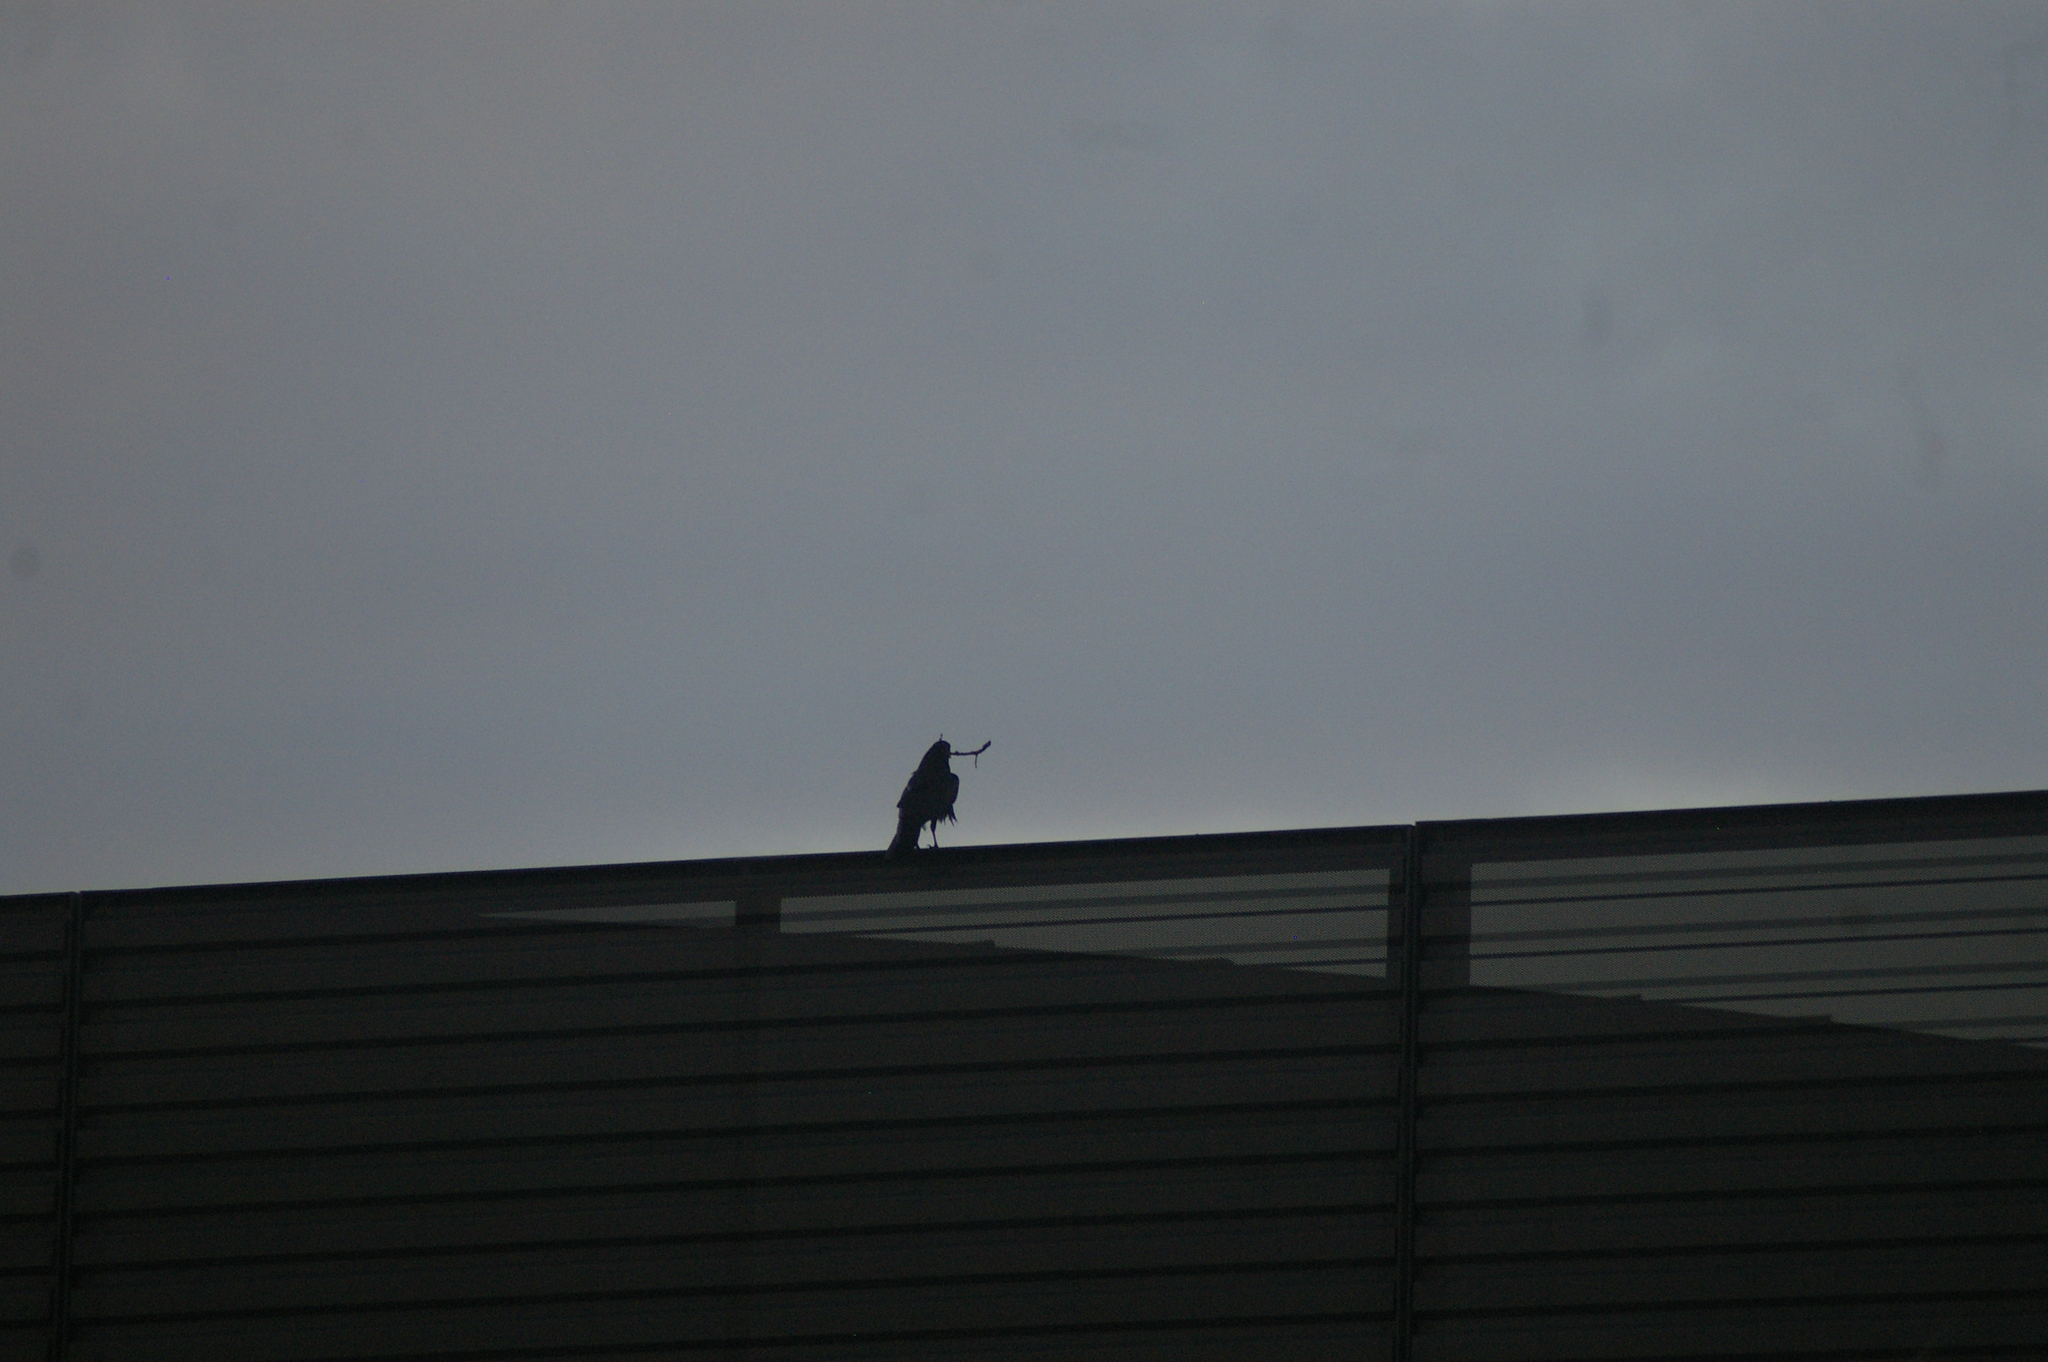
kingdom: Animalia
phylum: Chordata
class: Aves
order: Passeriformes
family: Corvidae
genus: Corvus
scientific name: Corvus corax
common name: Common raven
